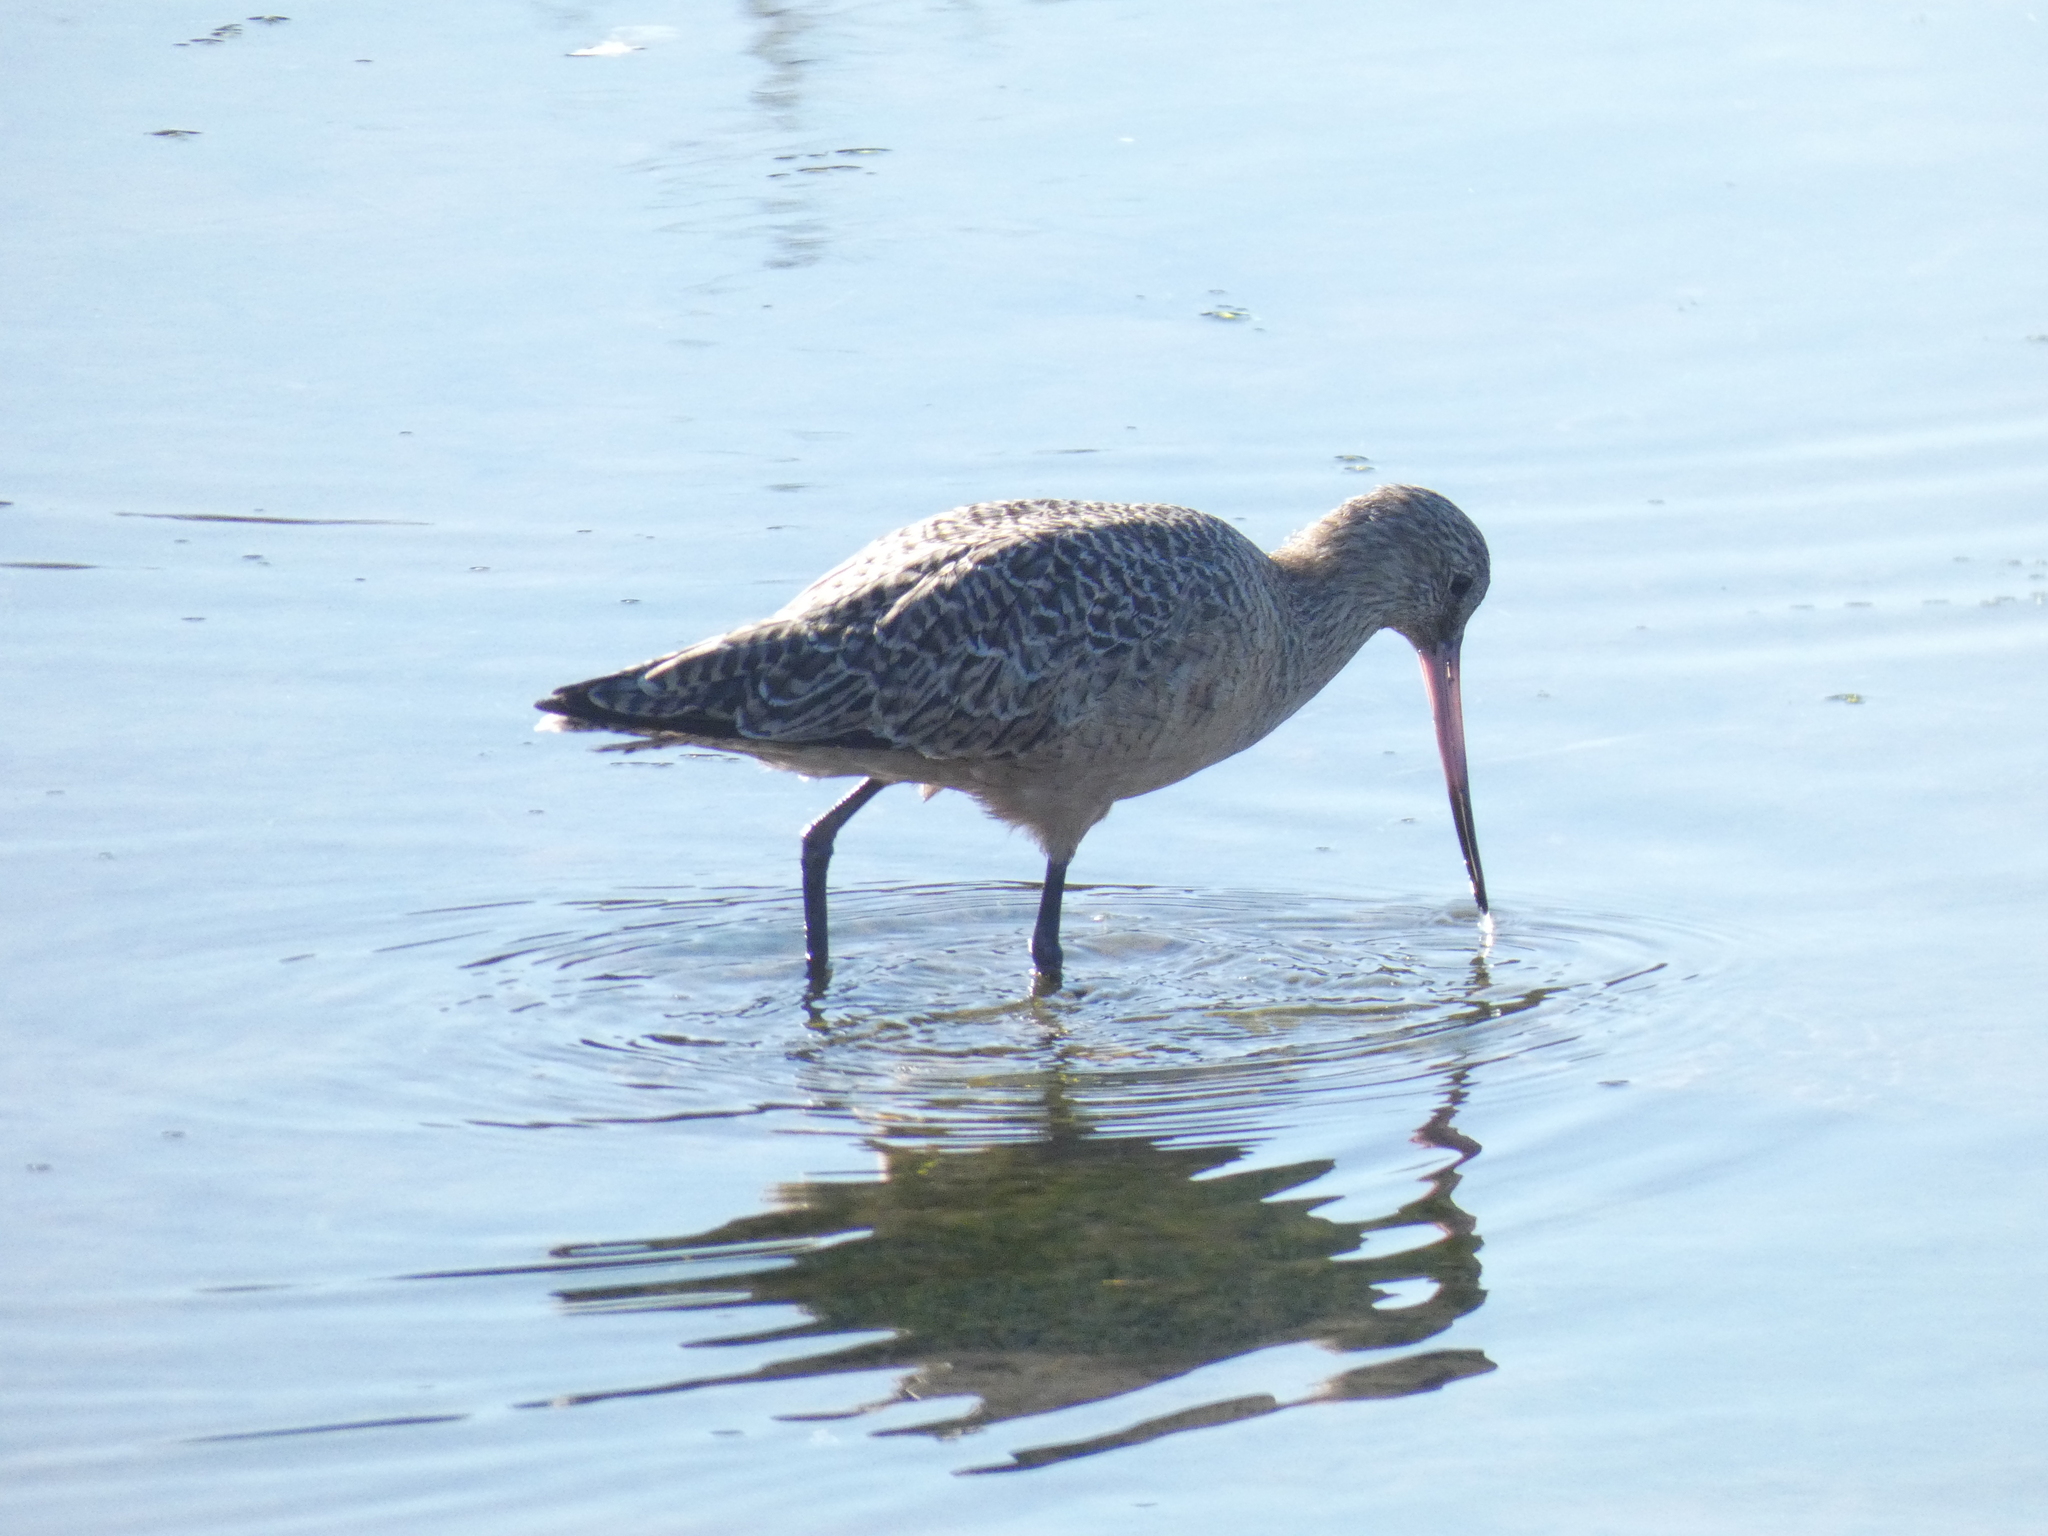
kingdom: Animalia
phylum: Chordata
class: Aves
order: Charadriiformes
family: Scolopacidae
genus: Limosa
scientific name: Limosa fedoa
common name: Marbled godwit
